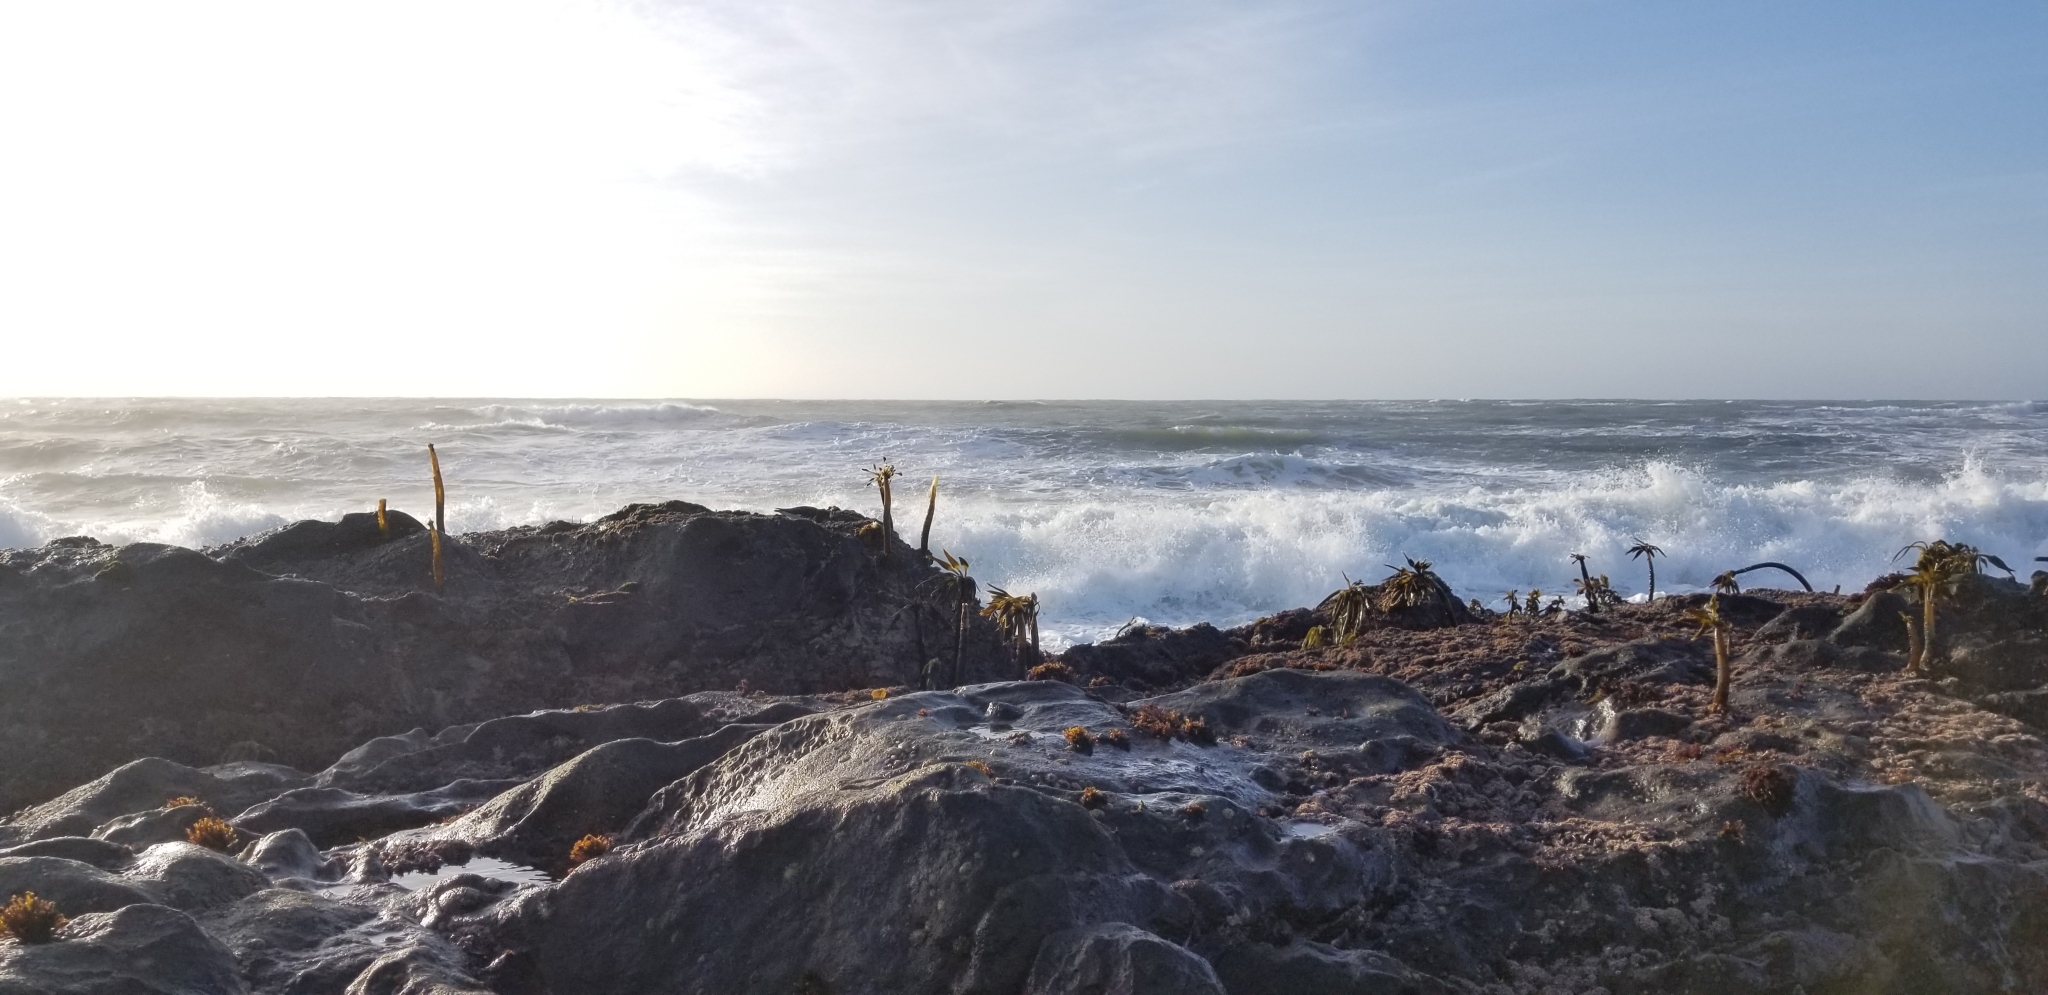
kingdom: Chromista
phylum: Ochrophyta
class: Phaeophyceae
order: Laminariales
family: Laminariaceae
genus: Postelsia
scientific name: Postelsia palmiformis
